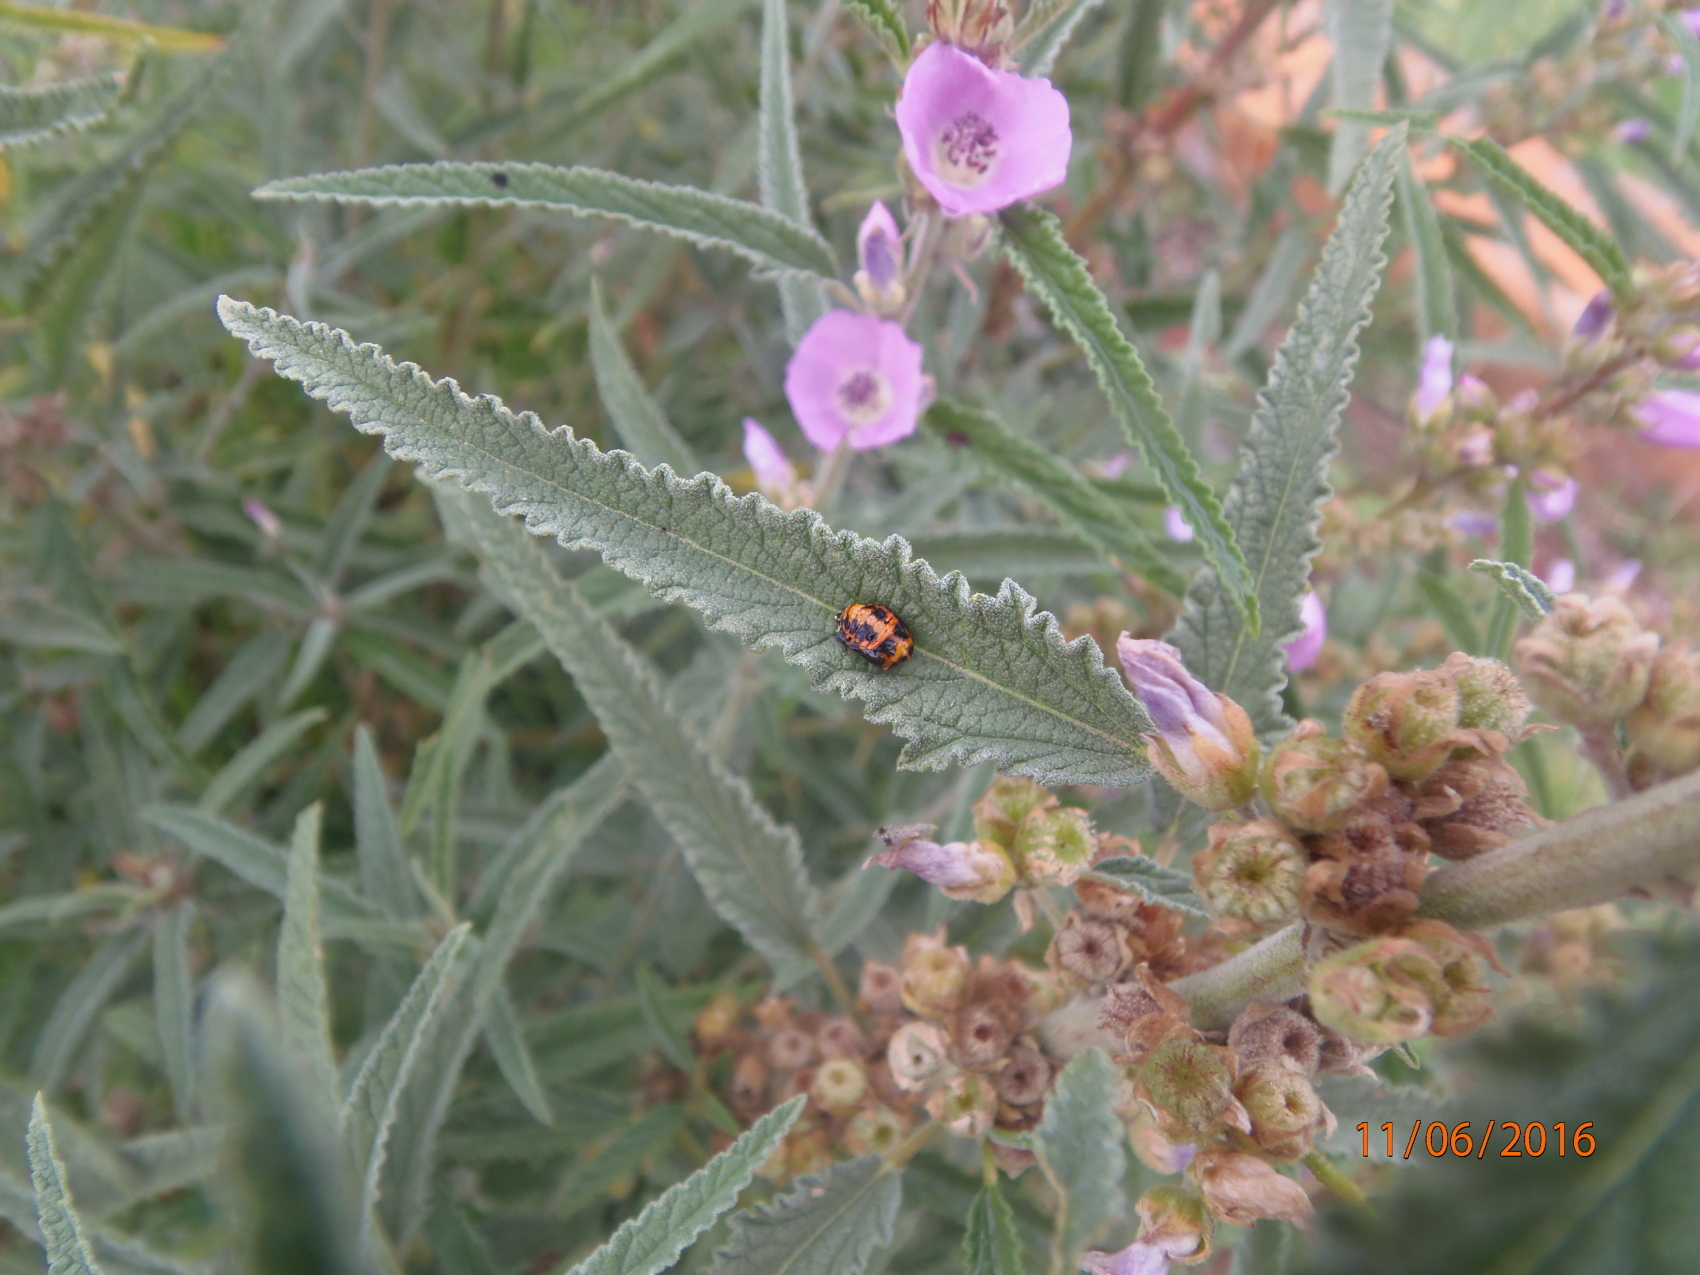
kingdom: Animalia
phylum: Arthropoda
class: Insecta
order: Coleoptera
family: Coccinellidae
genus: Harmonia
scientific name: Harmonia axyridis
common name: Harlequin ladybird
